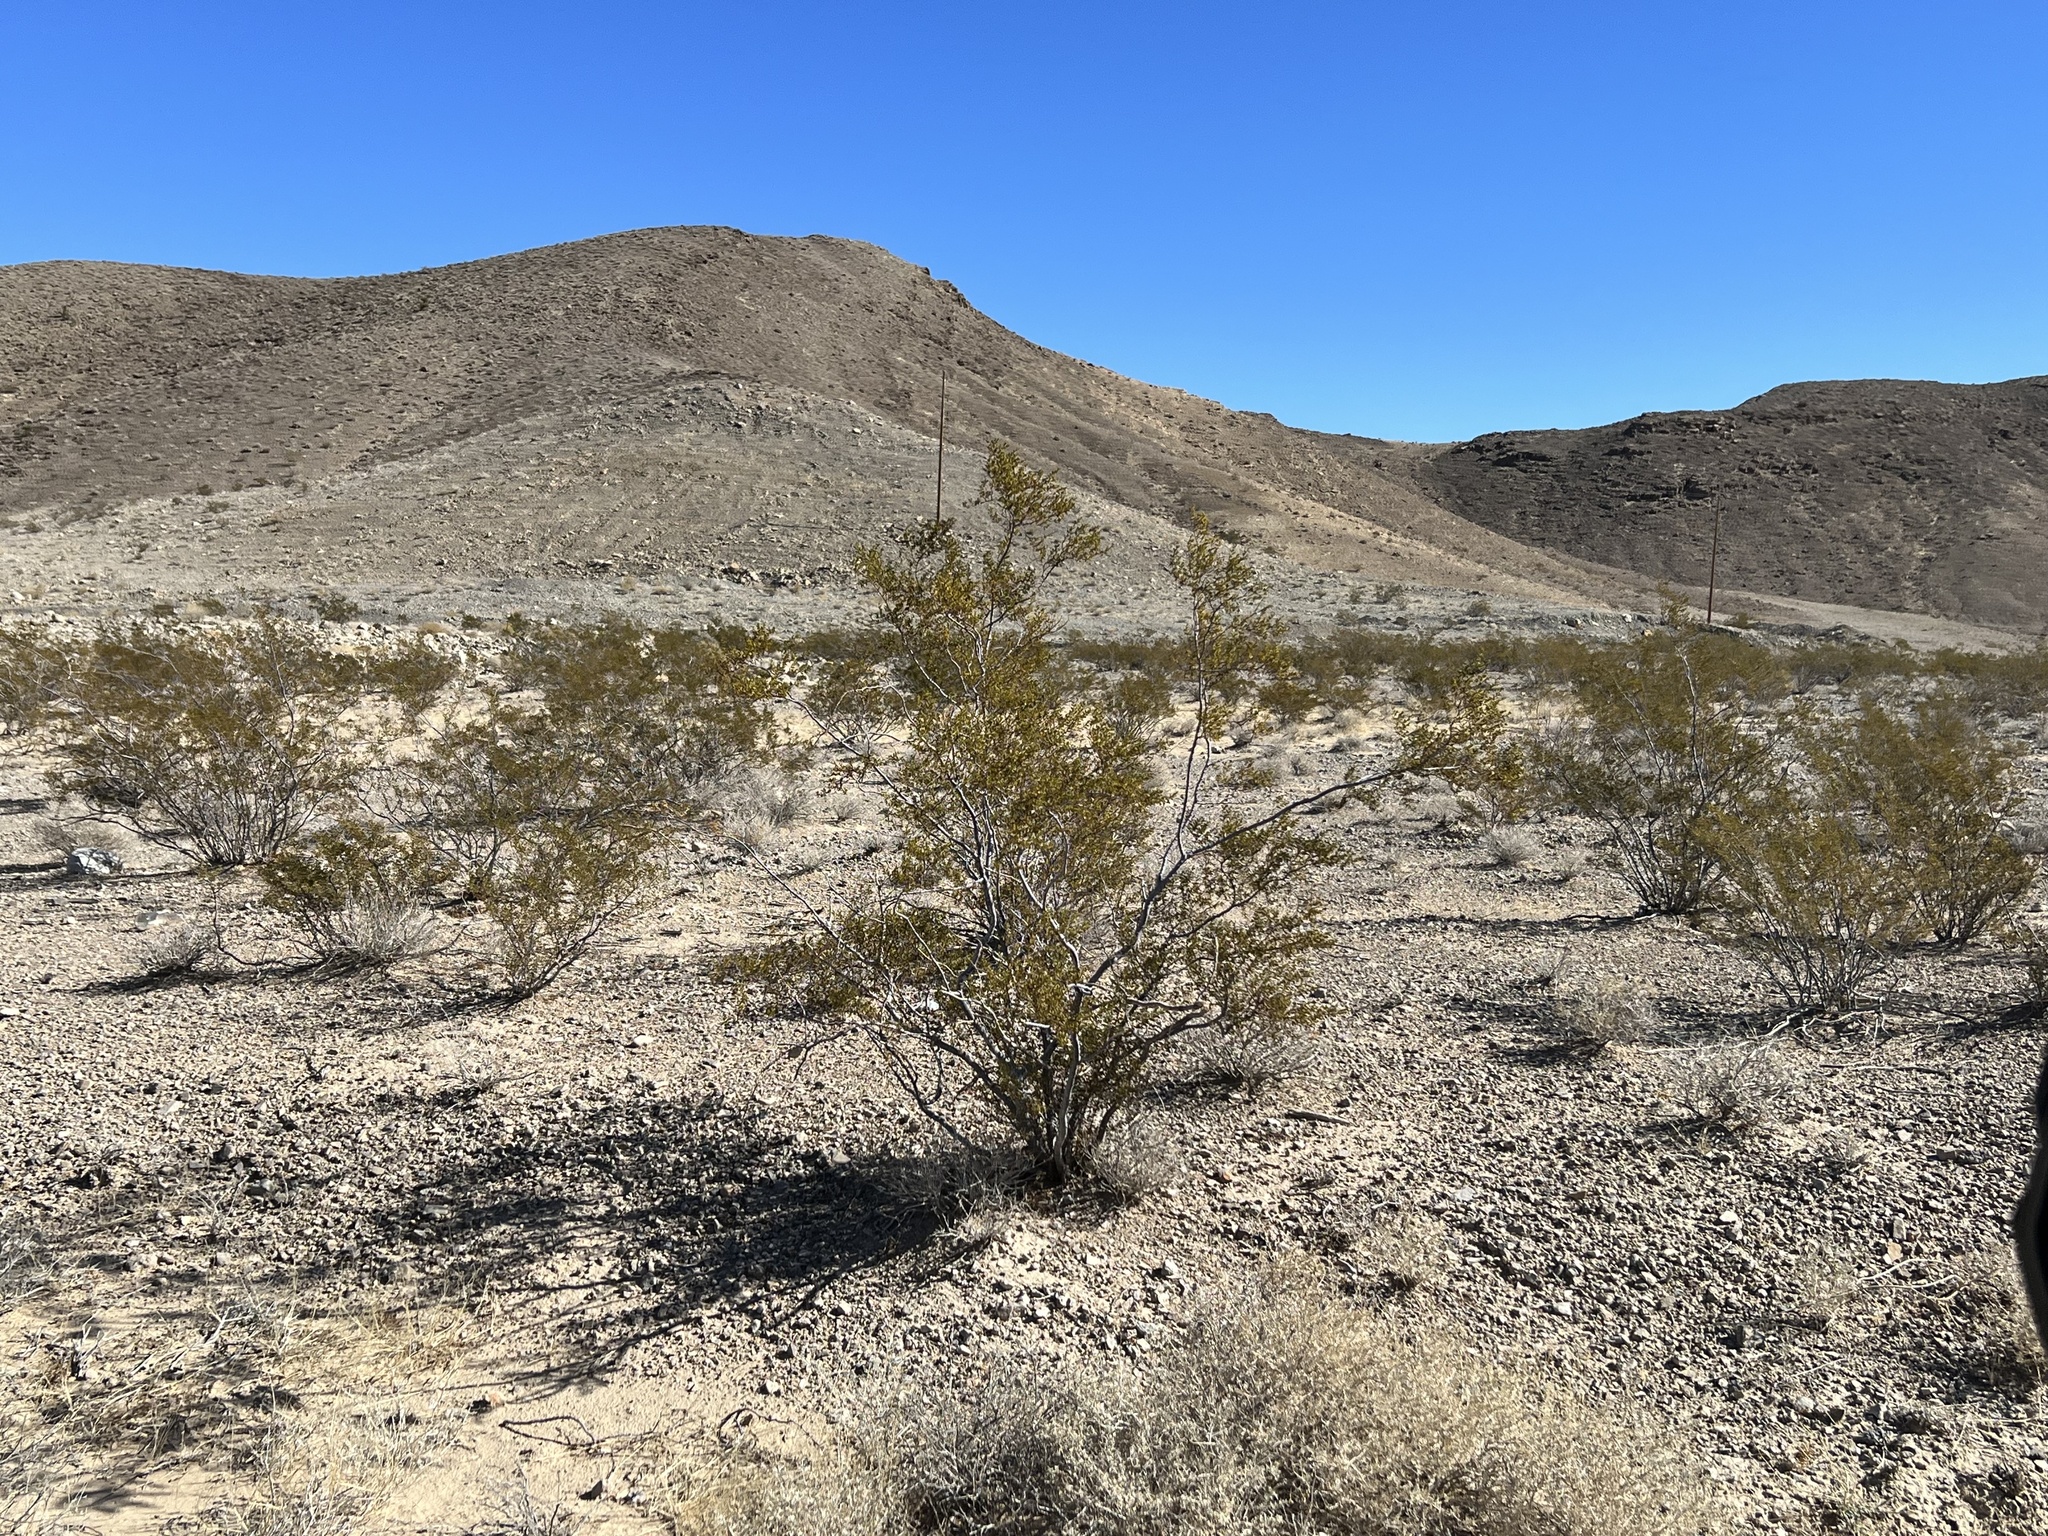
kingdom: Plantae
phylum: Tracheophyta
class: Magnoliopsida
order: Zygophyllales
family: Zygophyllaceae
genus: Larrea
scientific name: Larrea tridentata
